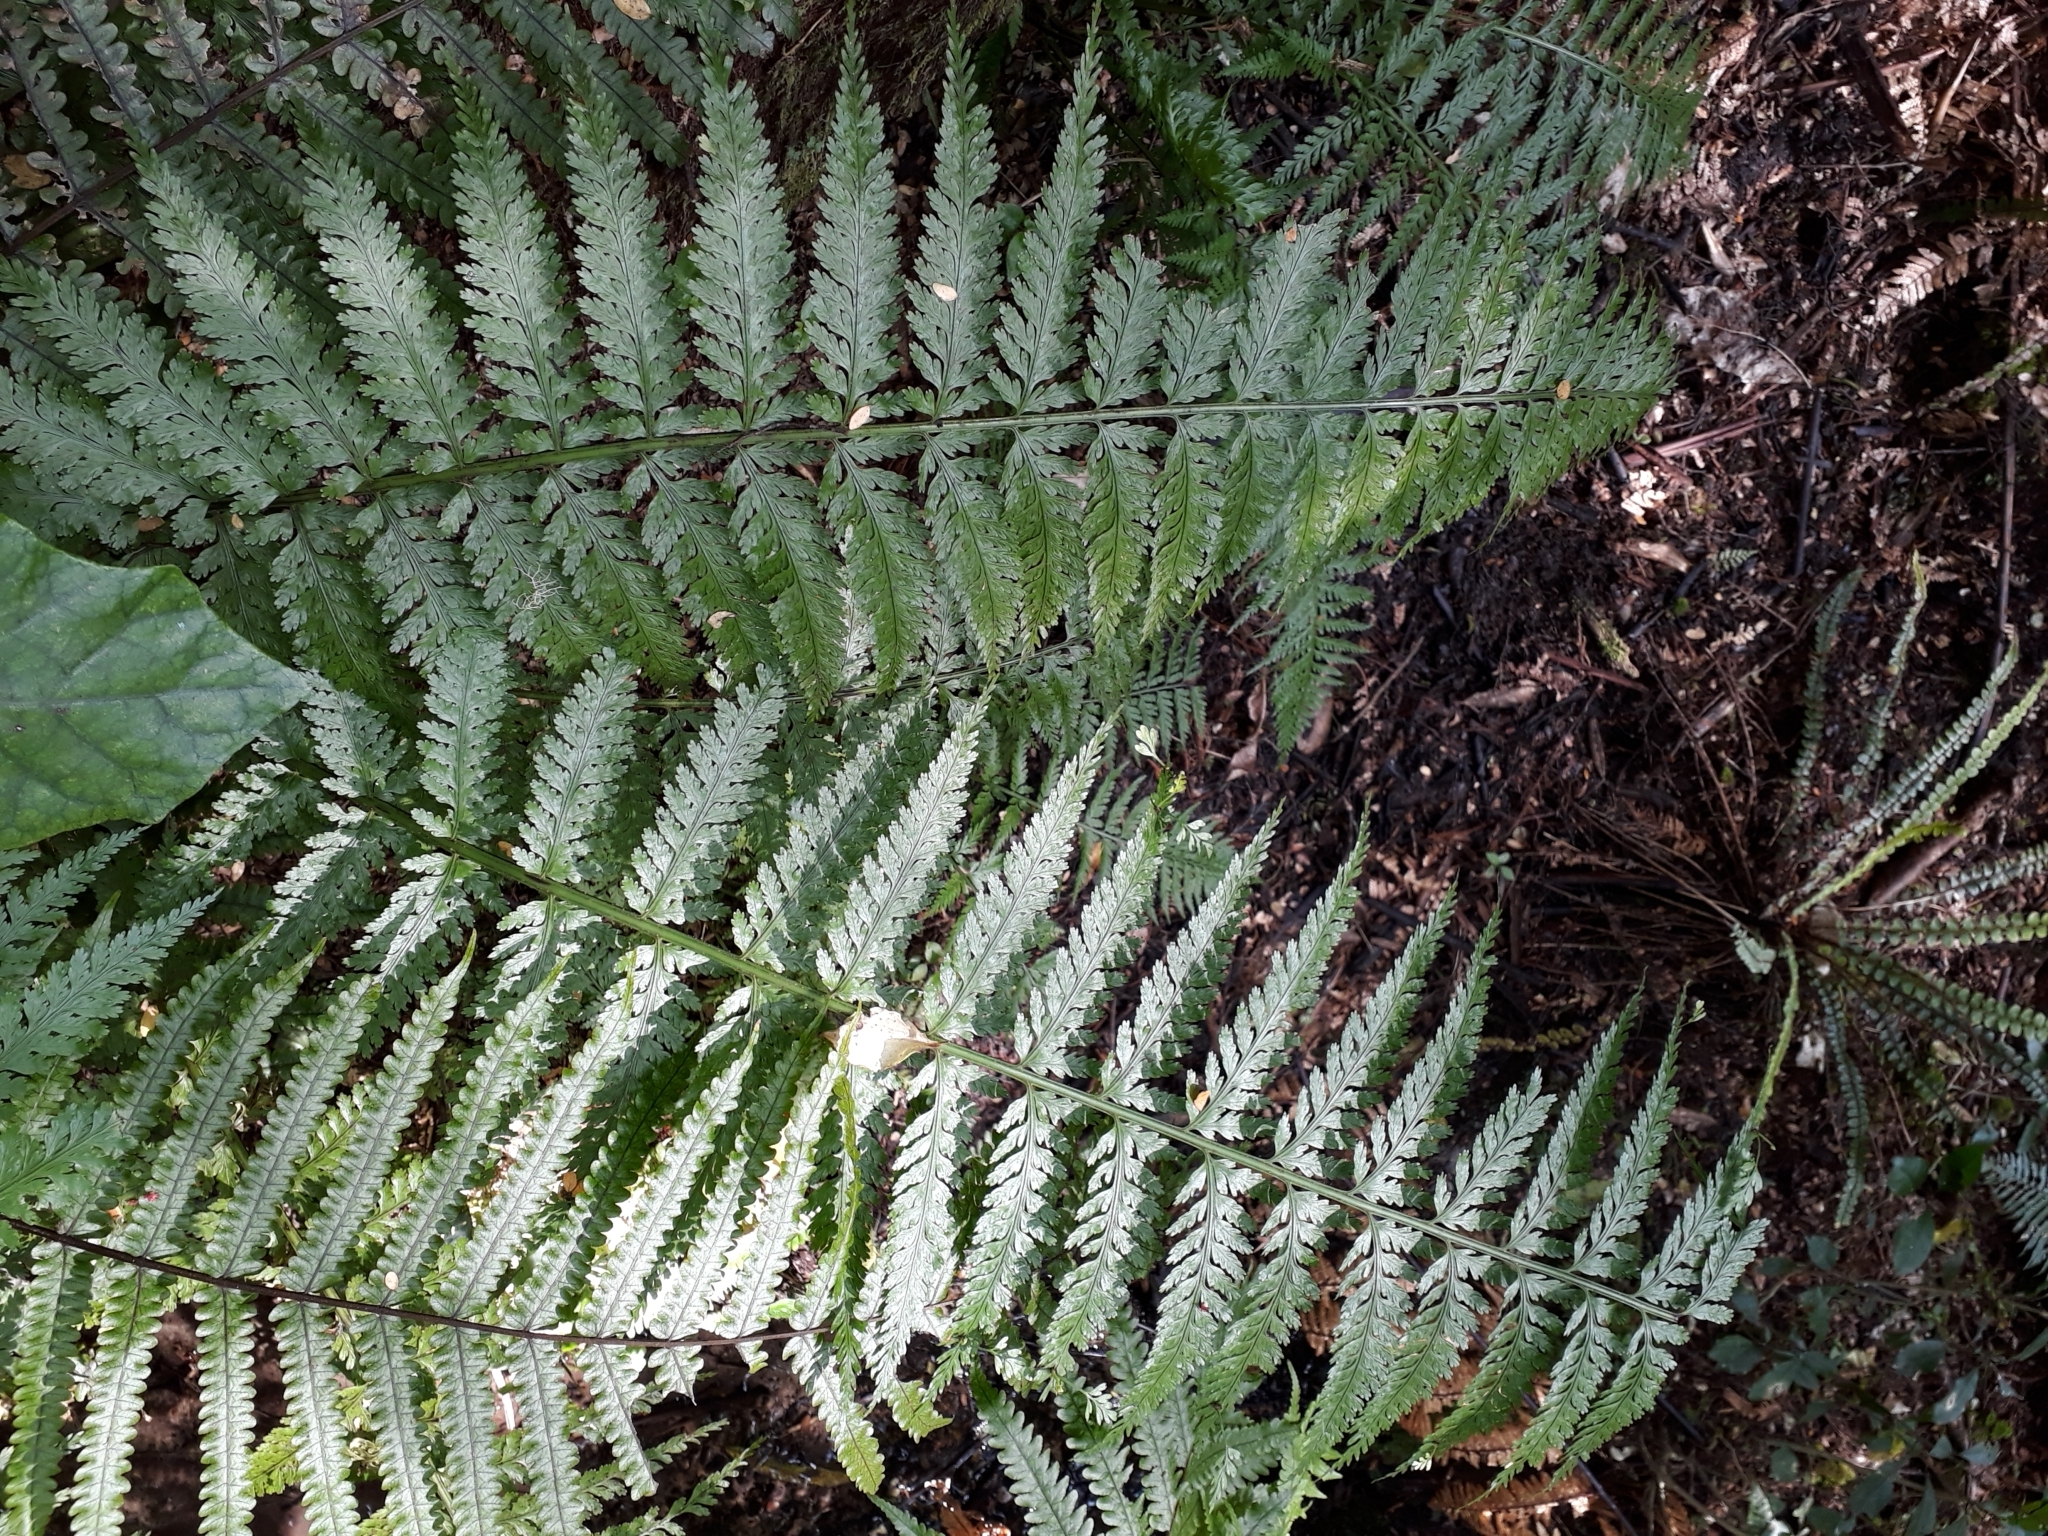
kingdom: Plantae
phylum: Tracheophyta
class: Polypodiopsida
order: Polypodiales
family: Aspleniaceae
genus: Asplenium
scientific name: Asplenium bulbiferum
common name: Mother fern
